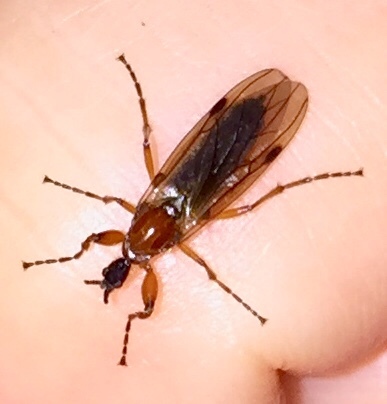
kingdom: Animalia
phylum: Arthropoda
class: Insecta
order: Diptera
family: Bibionidae
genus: Bibio
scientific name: Bibio longipes
